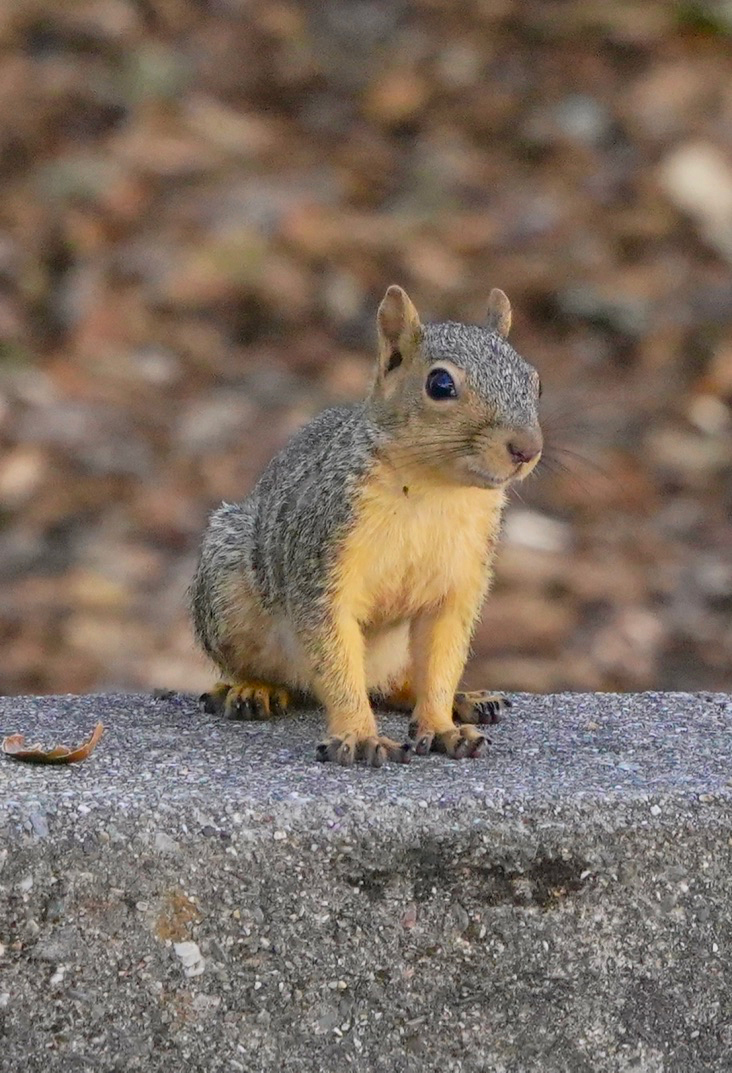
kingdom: Animalia
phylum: Chordata
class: Mammalia
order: Rodentia
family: Sciuridae
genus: Sciurus
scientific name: Sciurus niger
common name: Fox squirrel
